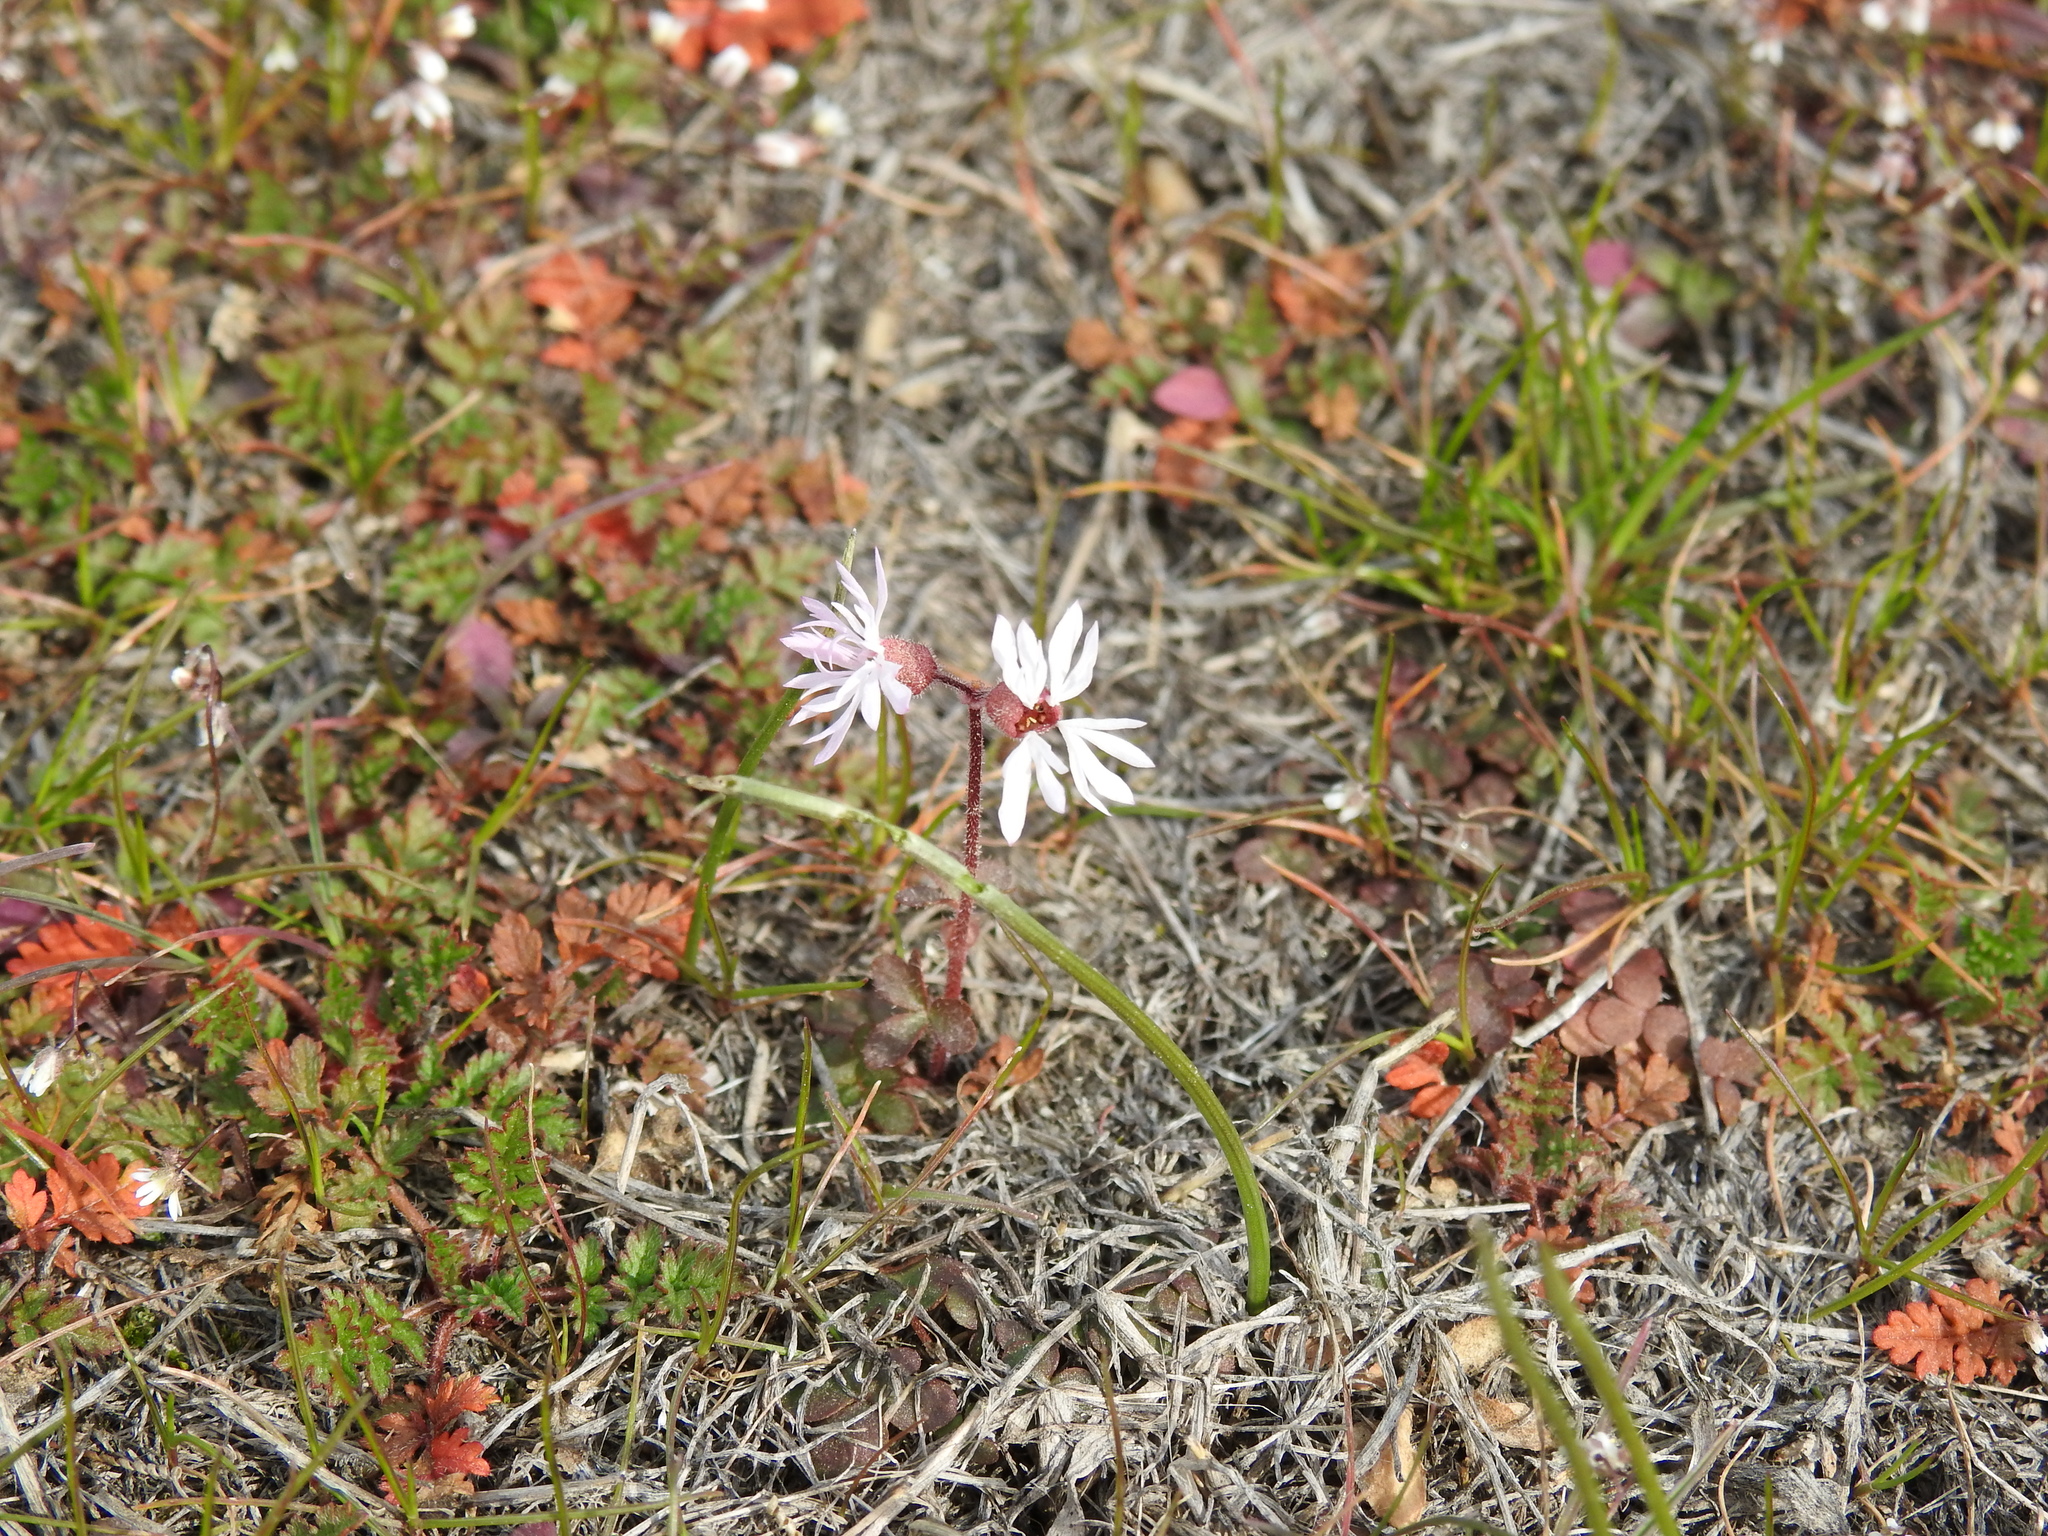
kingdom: Plantae
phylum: Tracheophyta
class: Magnoliopsida
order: Saxifragales
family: Saxifragaceae
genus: Lithophragma
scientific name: Lithophragma glabrum
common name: Bulbous prairie-star
